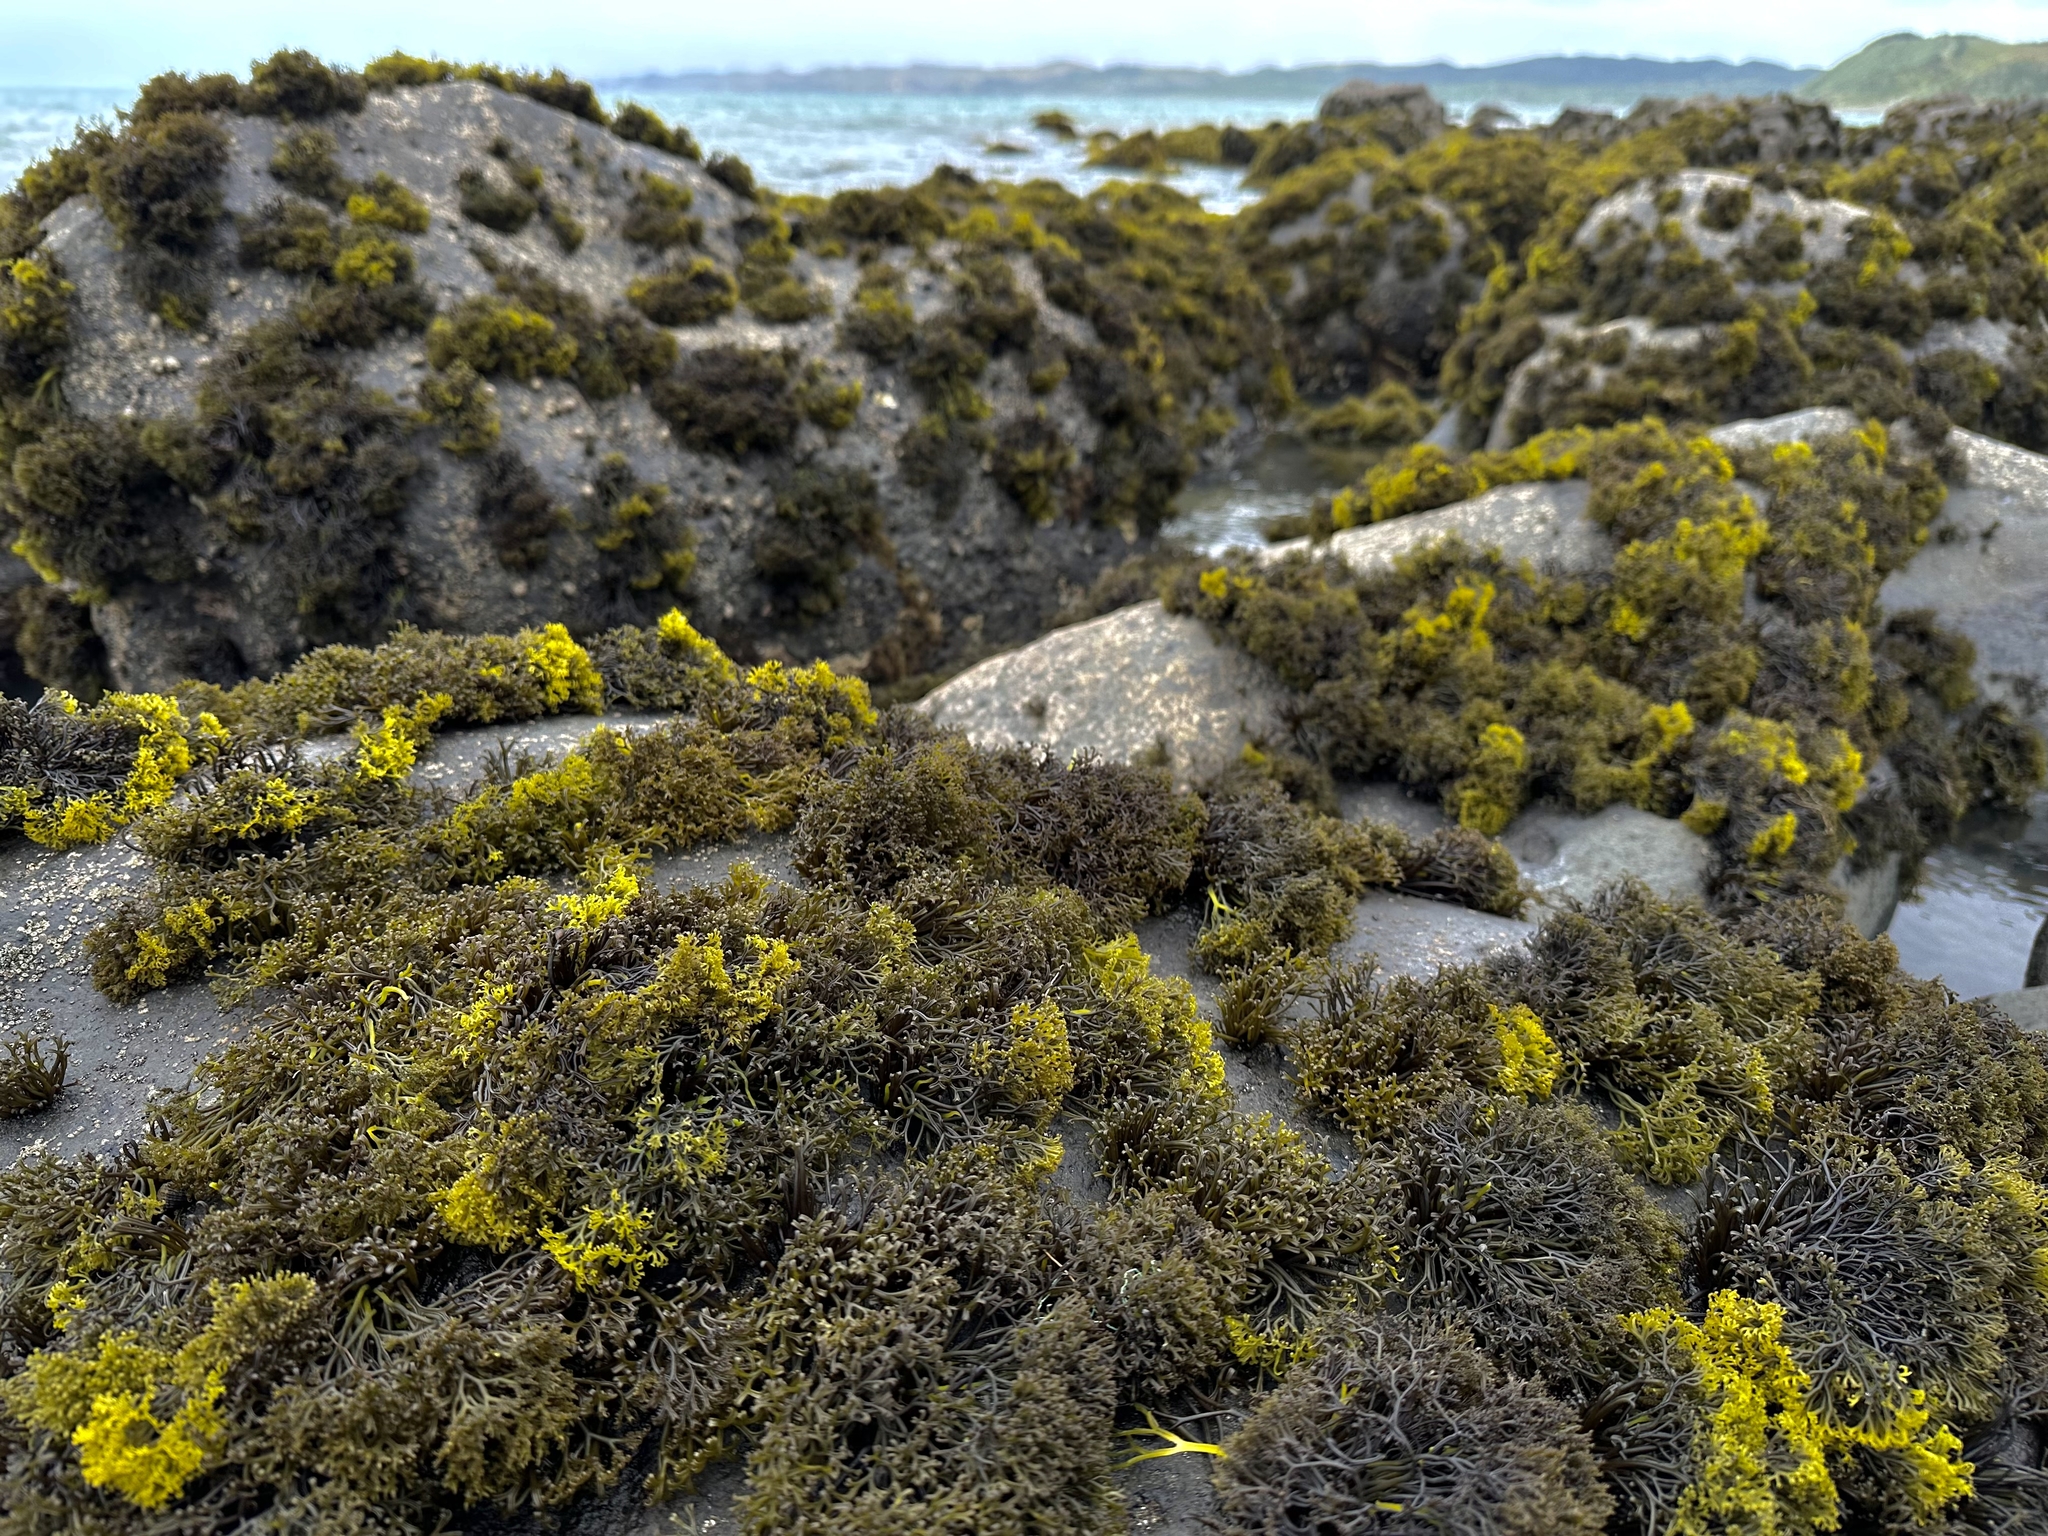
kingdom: Plantae
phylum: Rhodophyta
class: Florideophyceae
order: Gigartinales
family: Gigartinaceae
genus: Psilophycus
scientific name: Psilophycus alveatus
